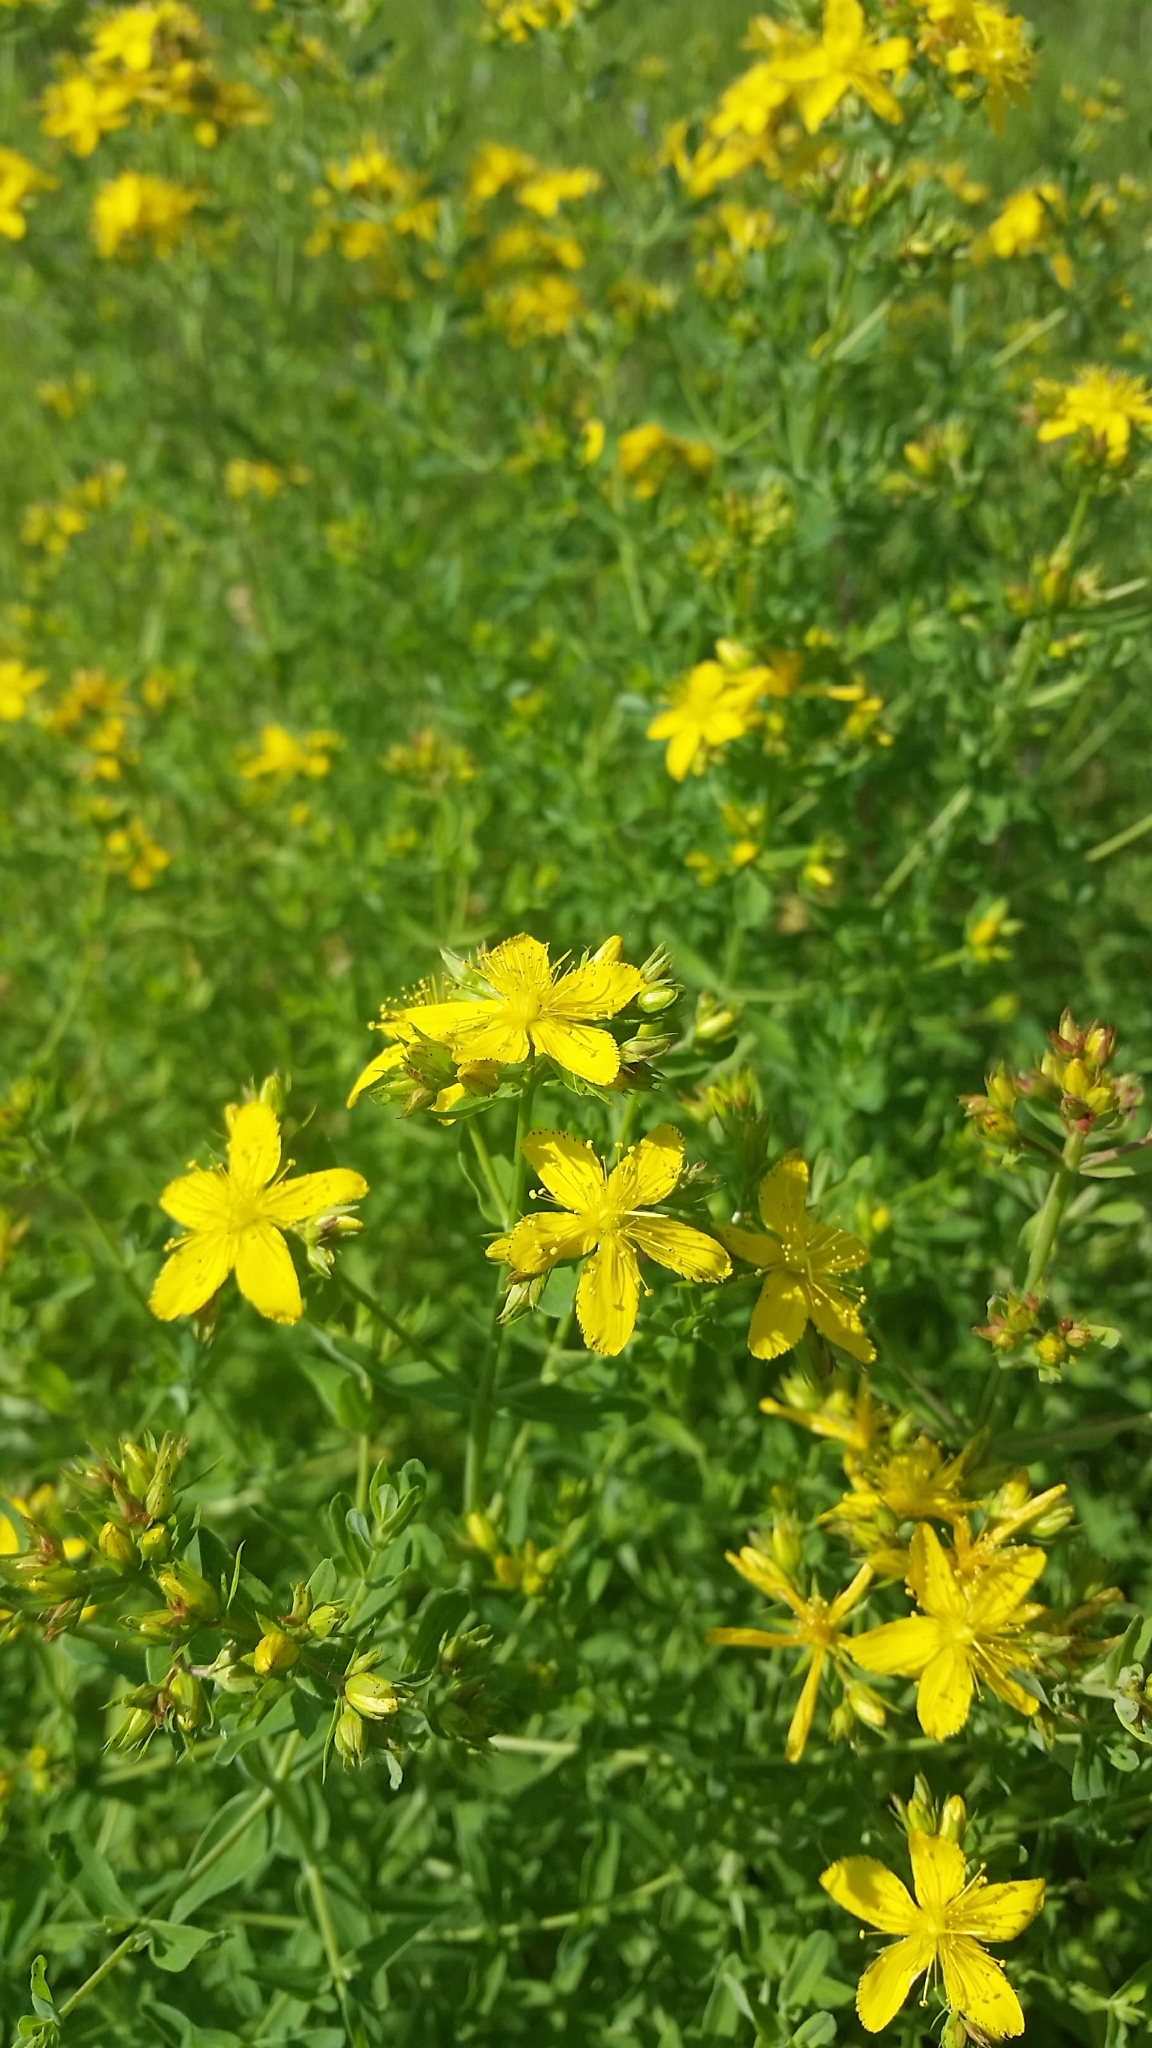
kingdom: Plantae
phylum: Tracheophyta
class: Magnoliopsida
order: Malpighiales
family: Hypericaceae
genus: Hypericum
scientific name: Hypericum perforatum
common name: Common st. johnswort
